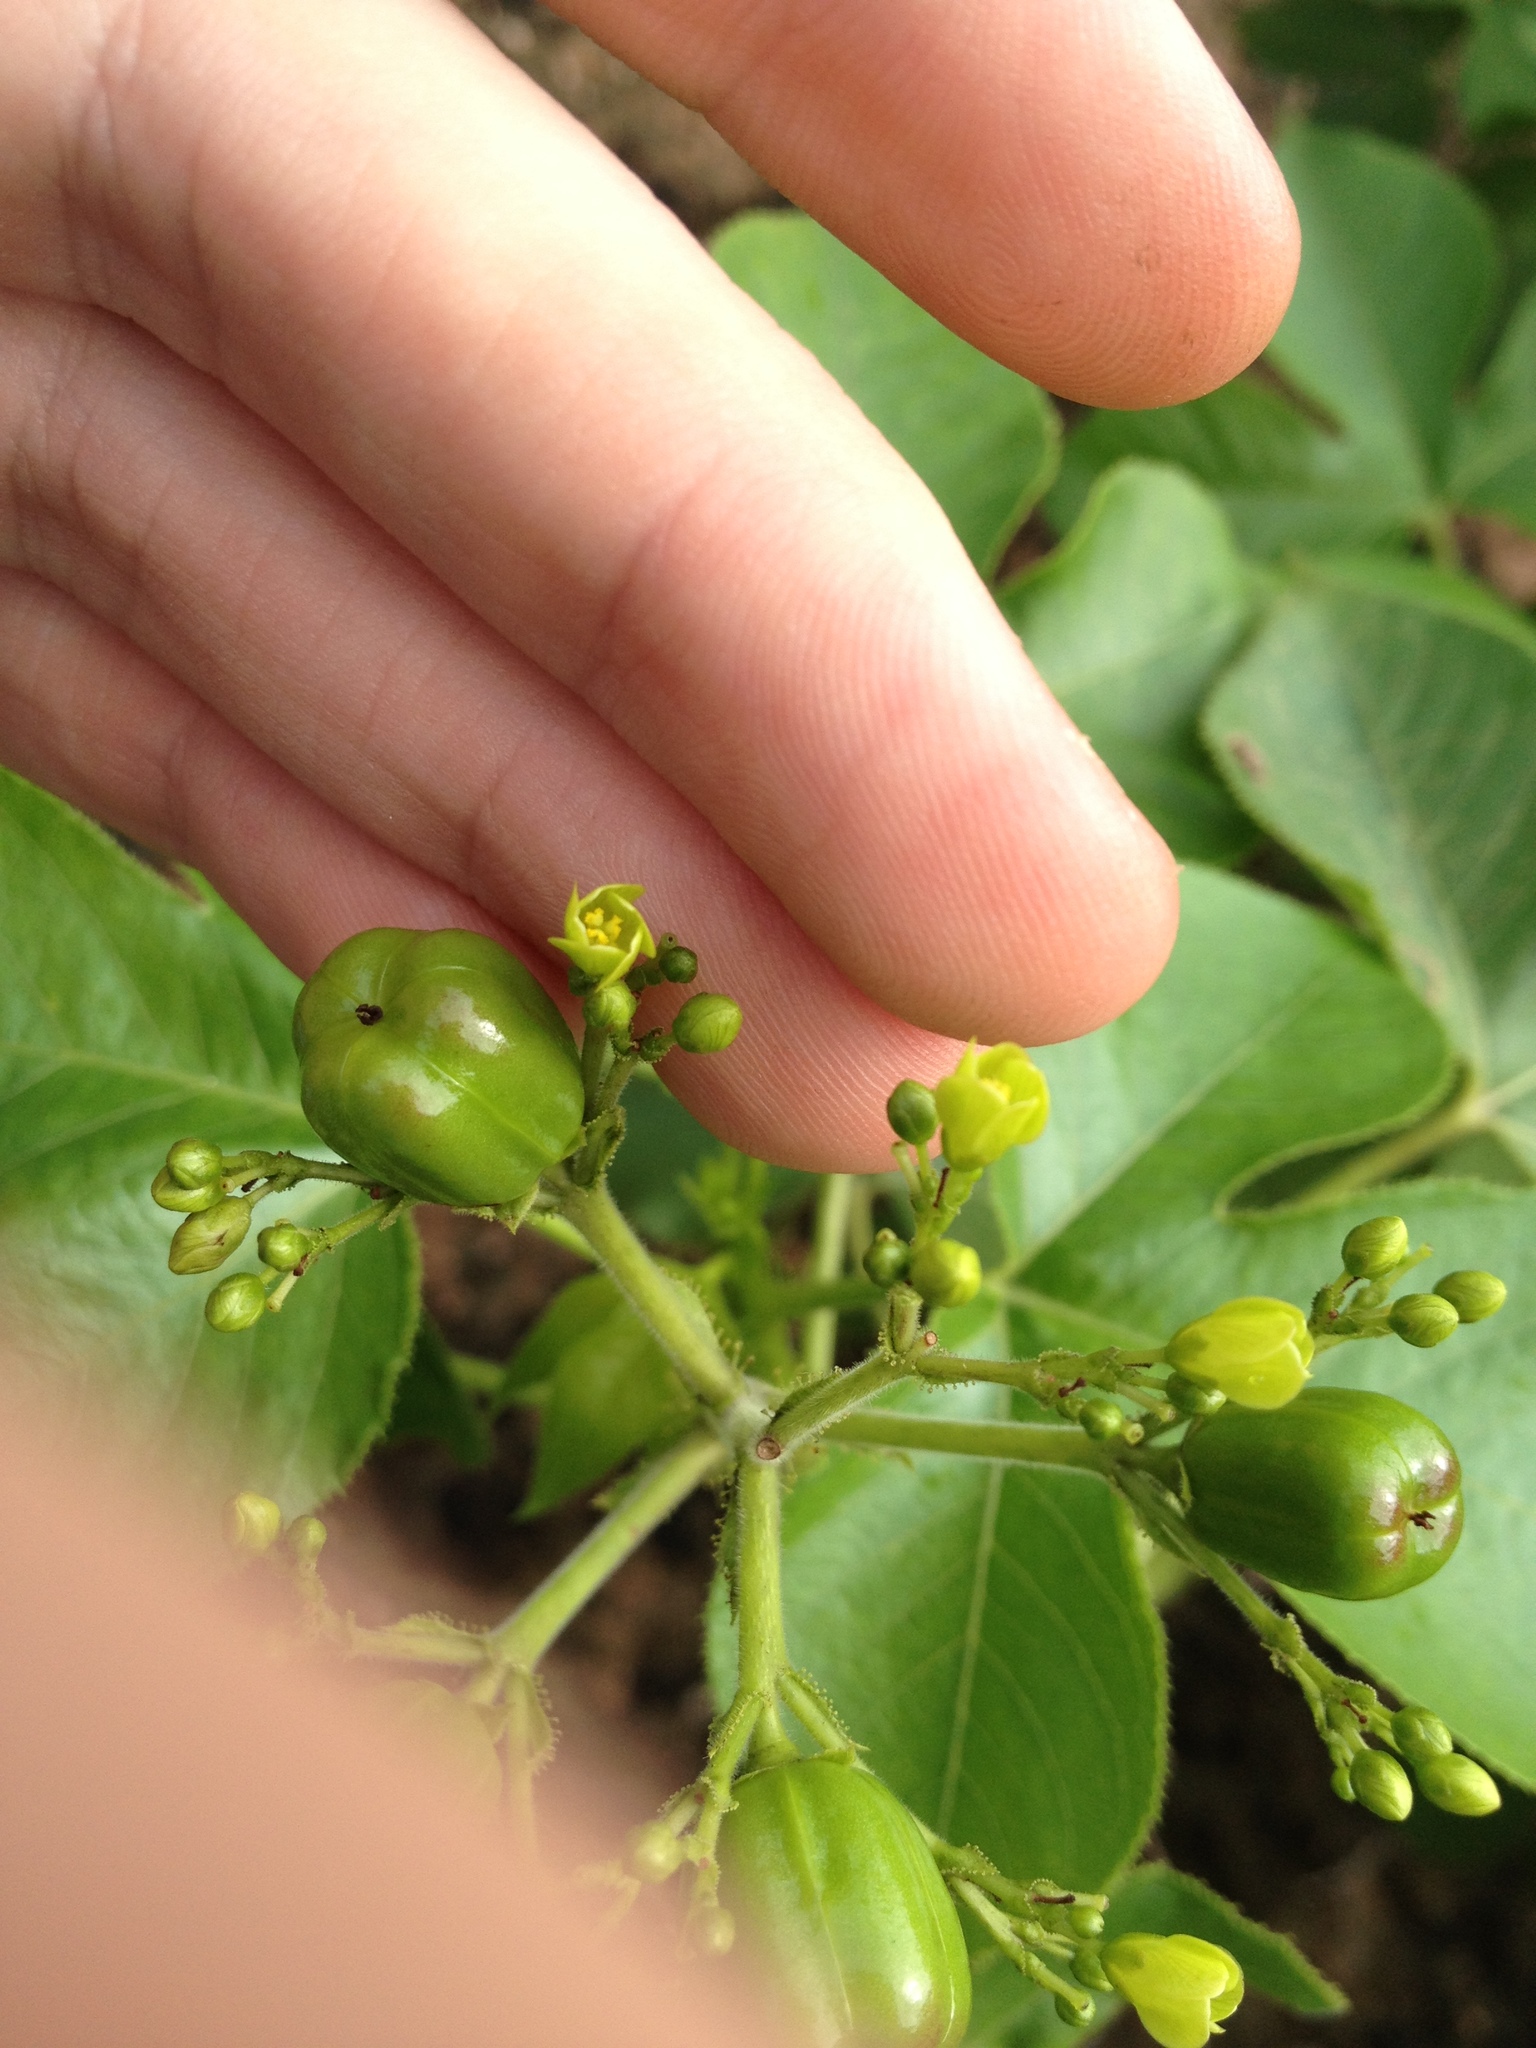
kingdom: Plantae
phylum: Tracheophyta
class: Magnoliopsida
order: Malpighiales
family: Euphorbiaceae
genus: Jatropha
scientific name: Jatropha hippocastanifolia
